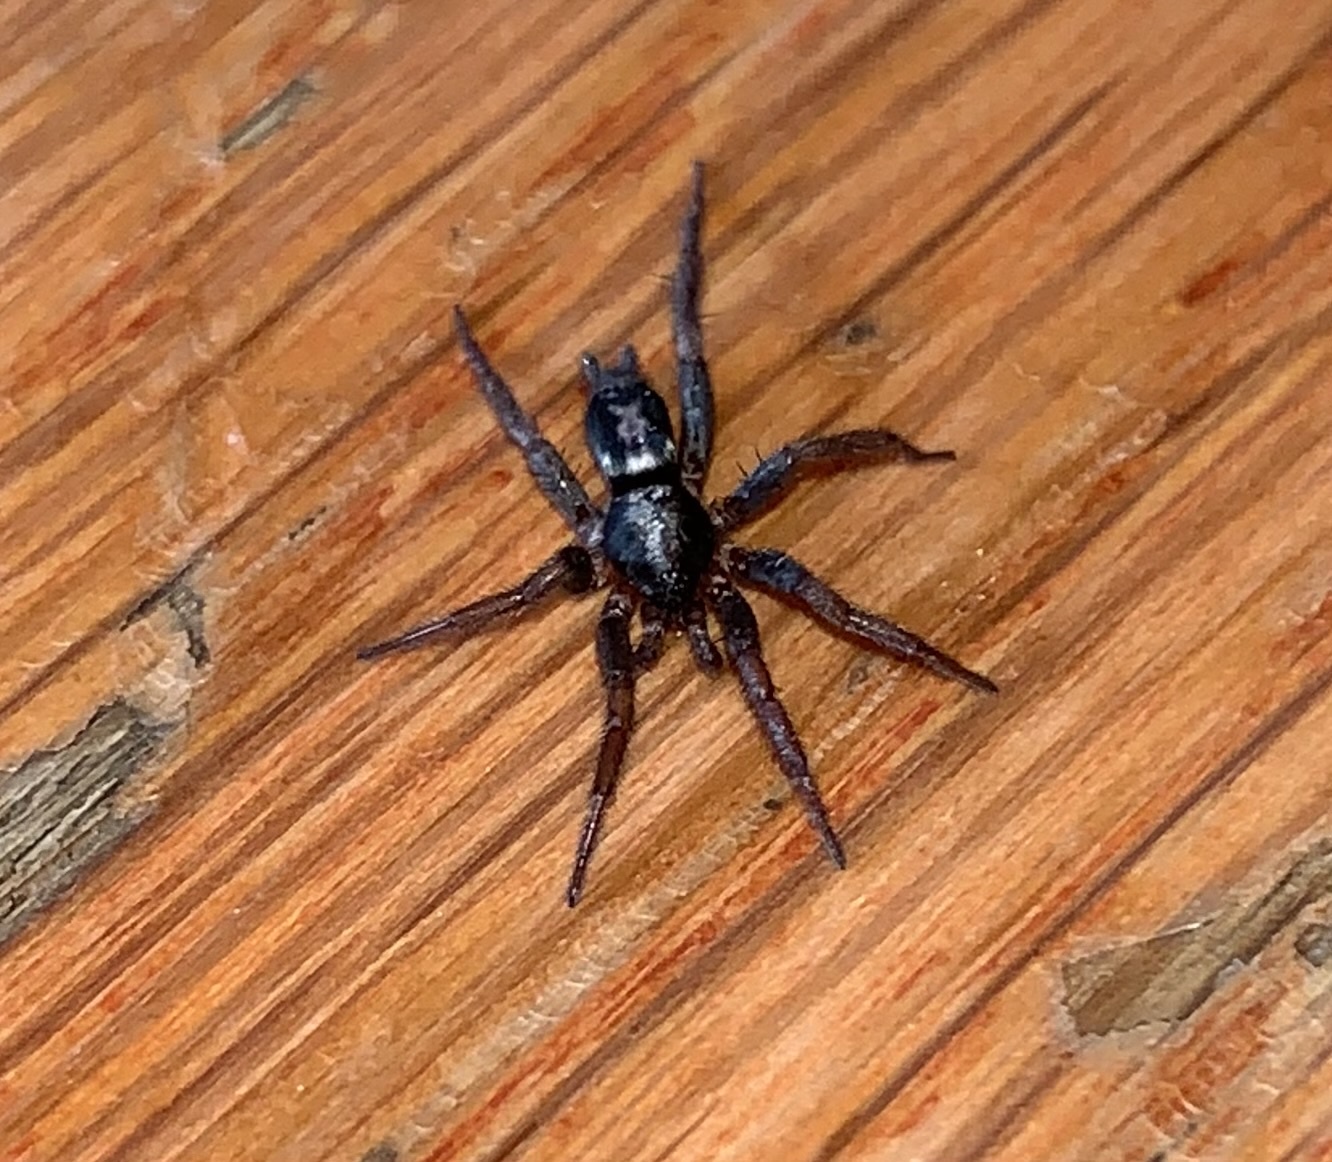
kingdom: Animalia
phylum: Arthropoda
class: Arachnida
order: Araneae
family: Gnaphosidae
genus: Herpyllus
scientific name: Herpyllus ecclesiasticus
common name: Eastern parson spider
